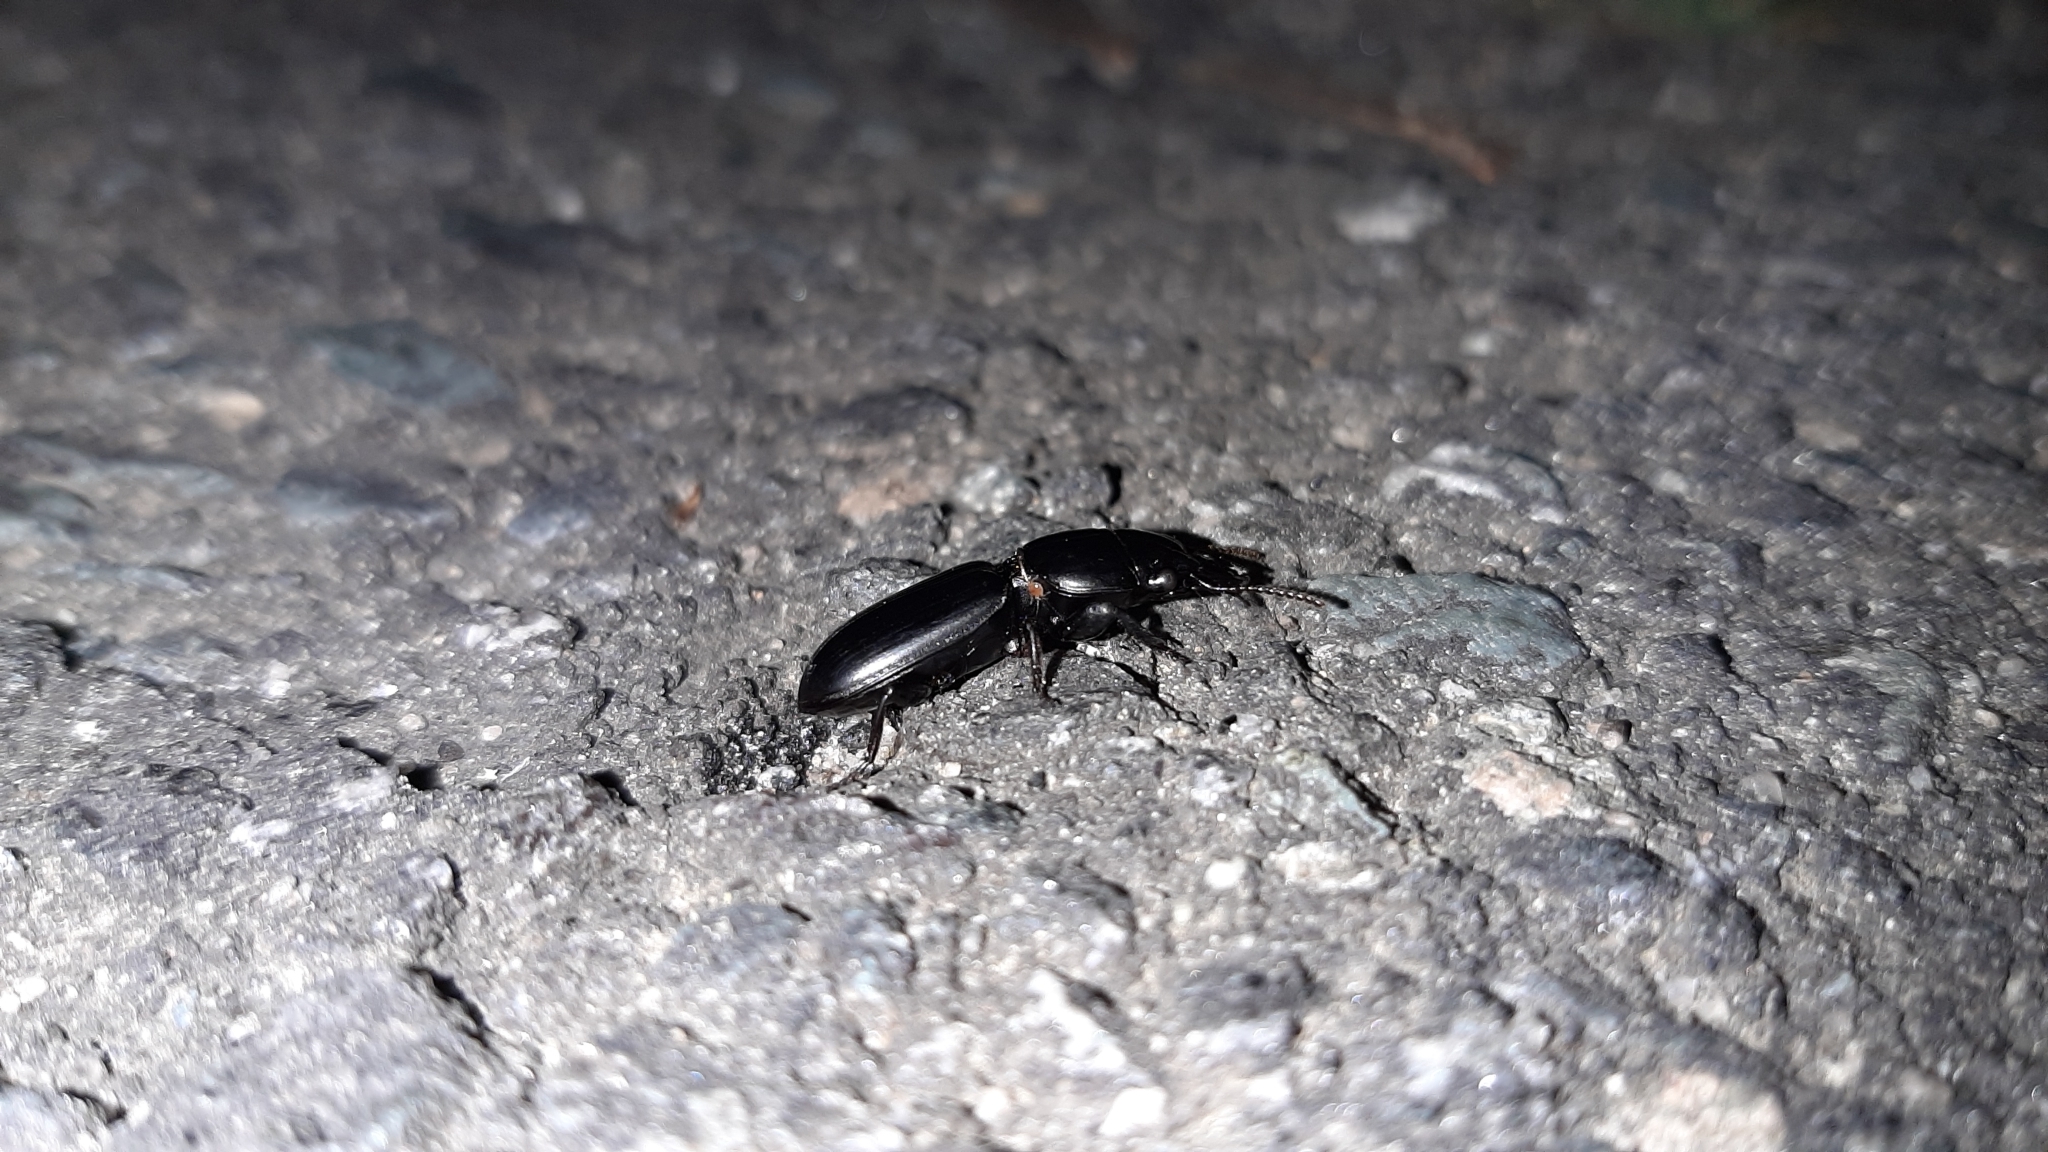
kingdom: Animalia
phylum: Arthropoda
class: Insecta
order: Coleoptera
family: Carabidae
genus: Scarites
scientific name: Scarites subterraneus
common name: Big-headed ground beetle
